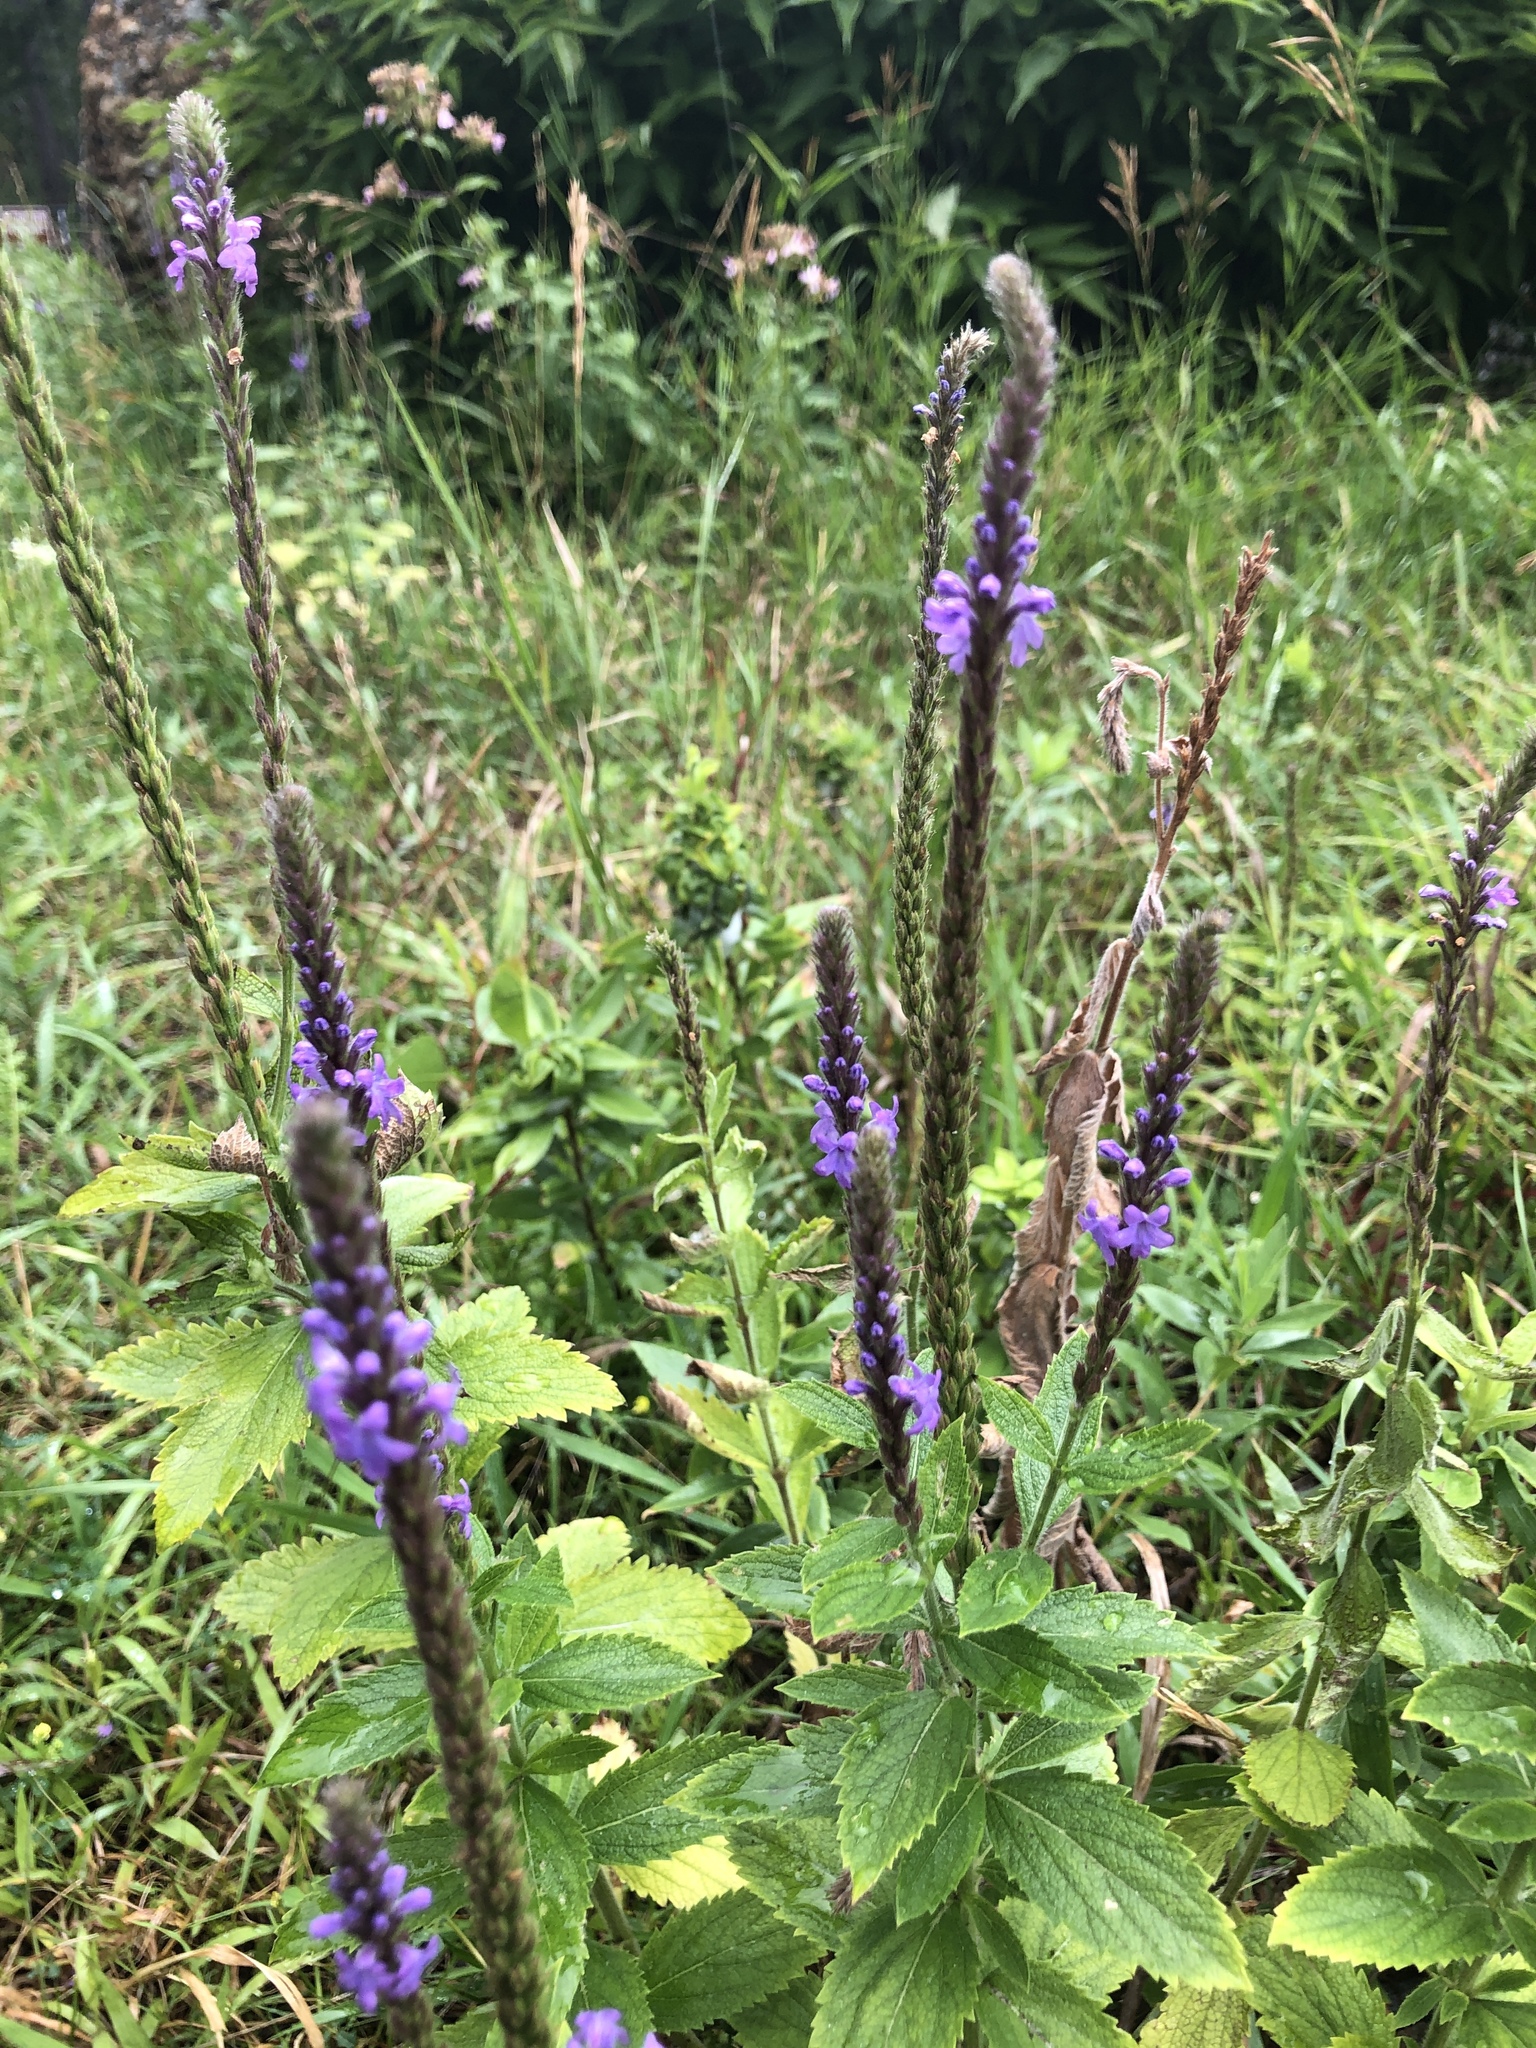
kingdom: Plantae
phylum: Tracheophyta
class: Magnoliopsida
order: Lamiales
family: Verbenaceae
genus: Verbena
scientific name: Verbena stricta
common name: Hoary vervain
